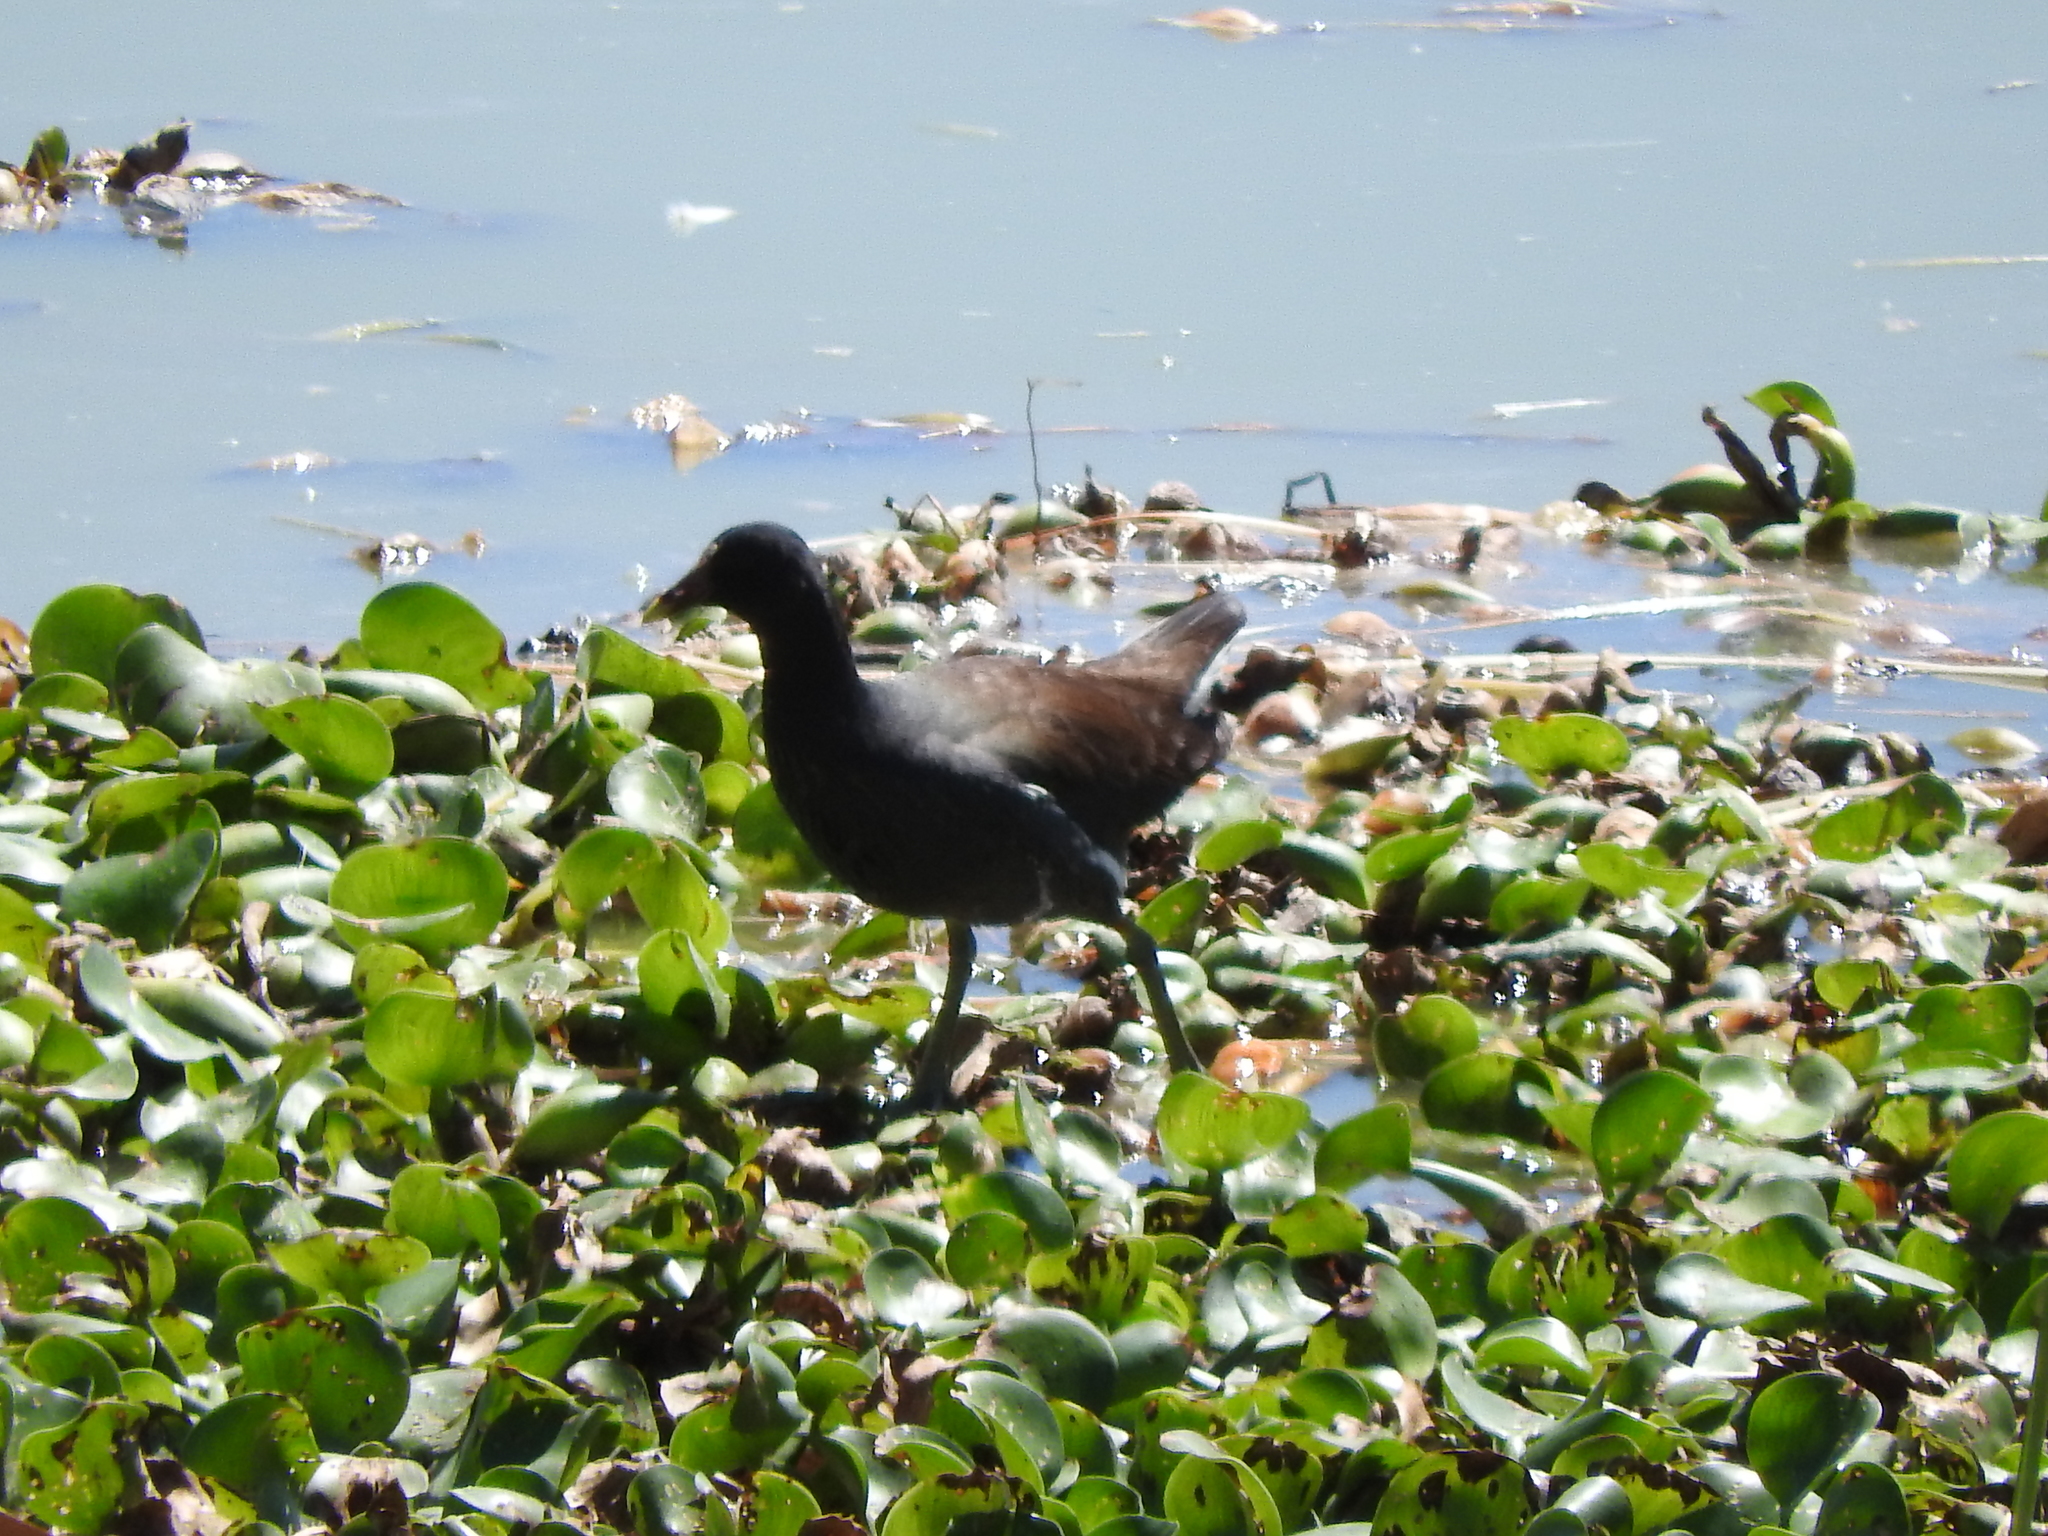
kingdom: Animalia
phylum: Chordata
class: Aves
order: Gruiformes
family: Rallidae
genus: Gallinula
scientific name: Gallinula chloropus
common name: Common moorhen
